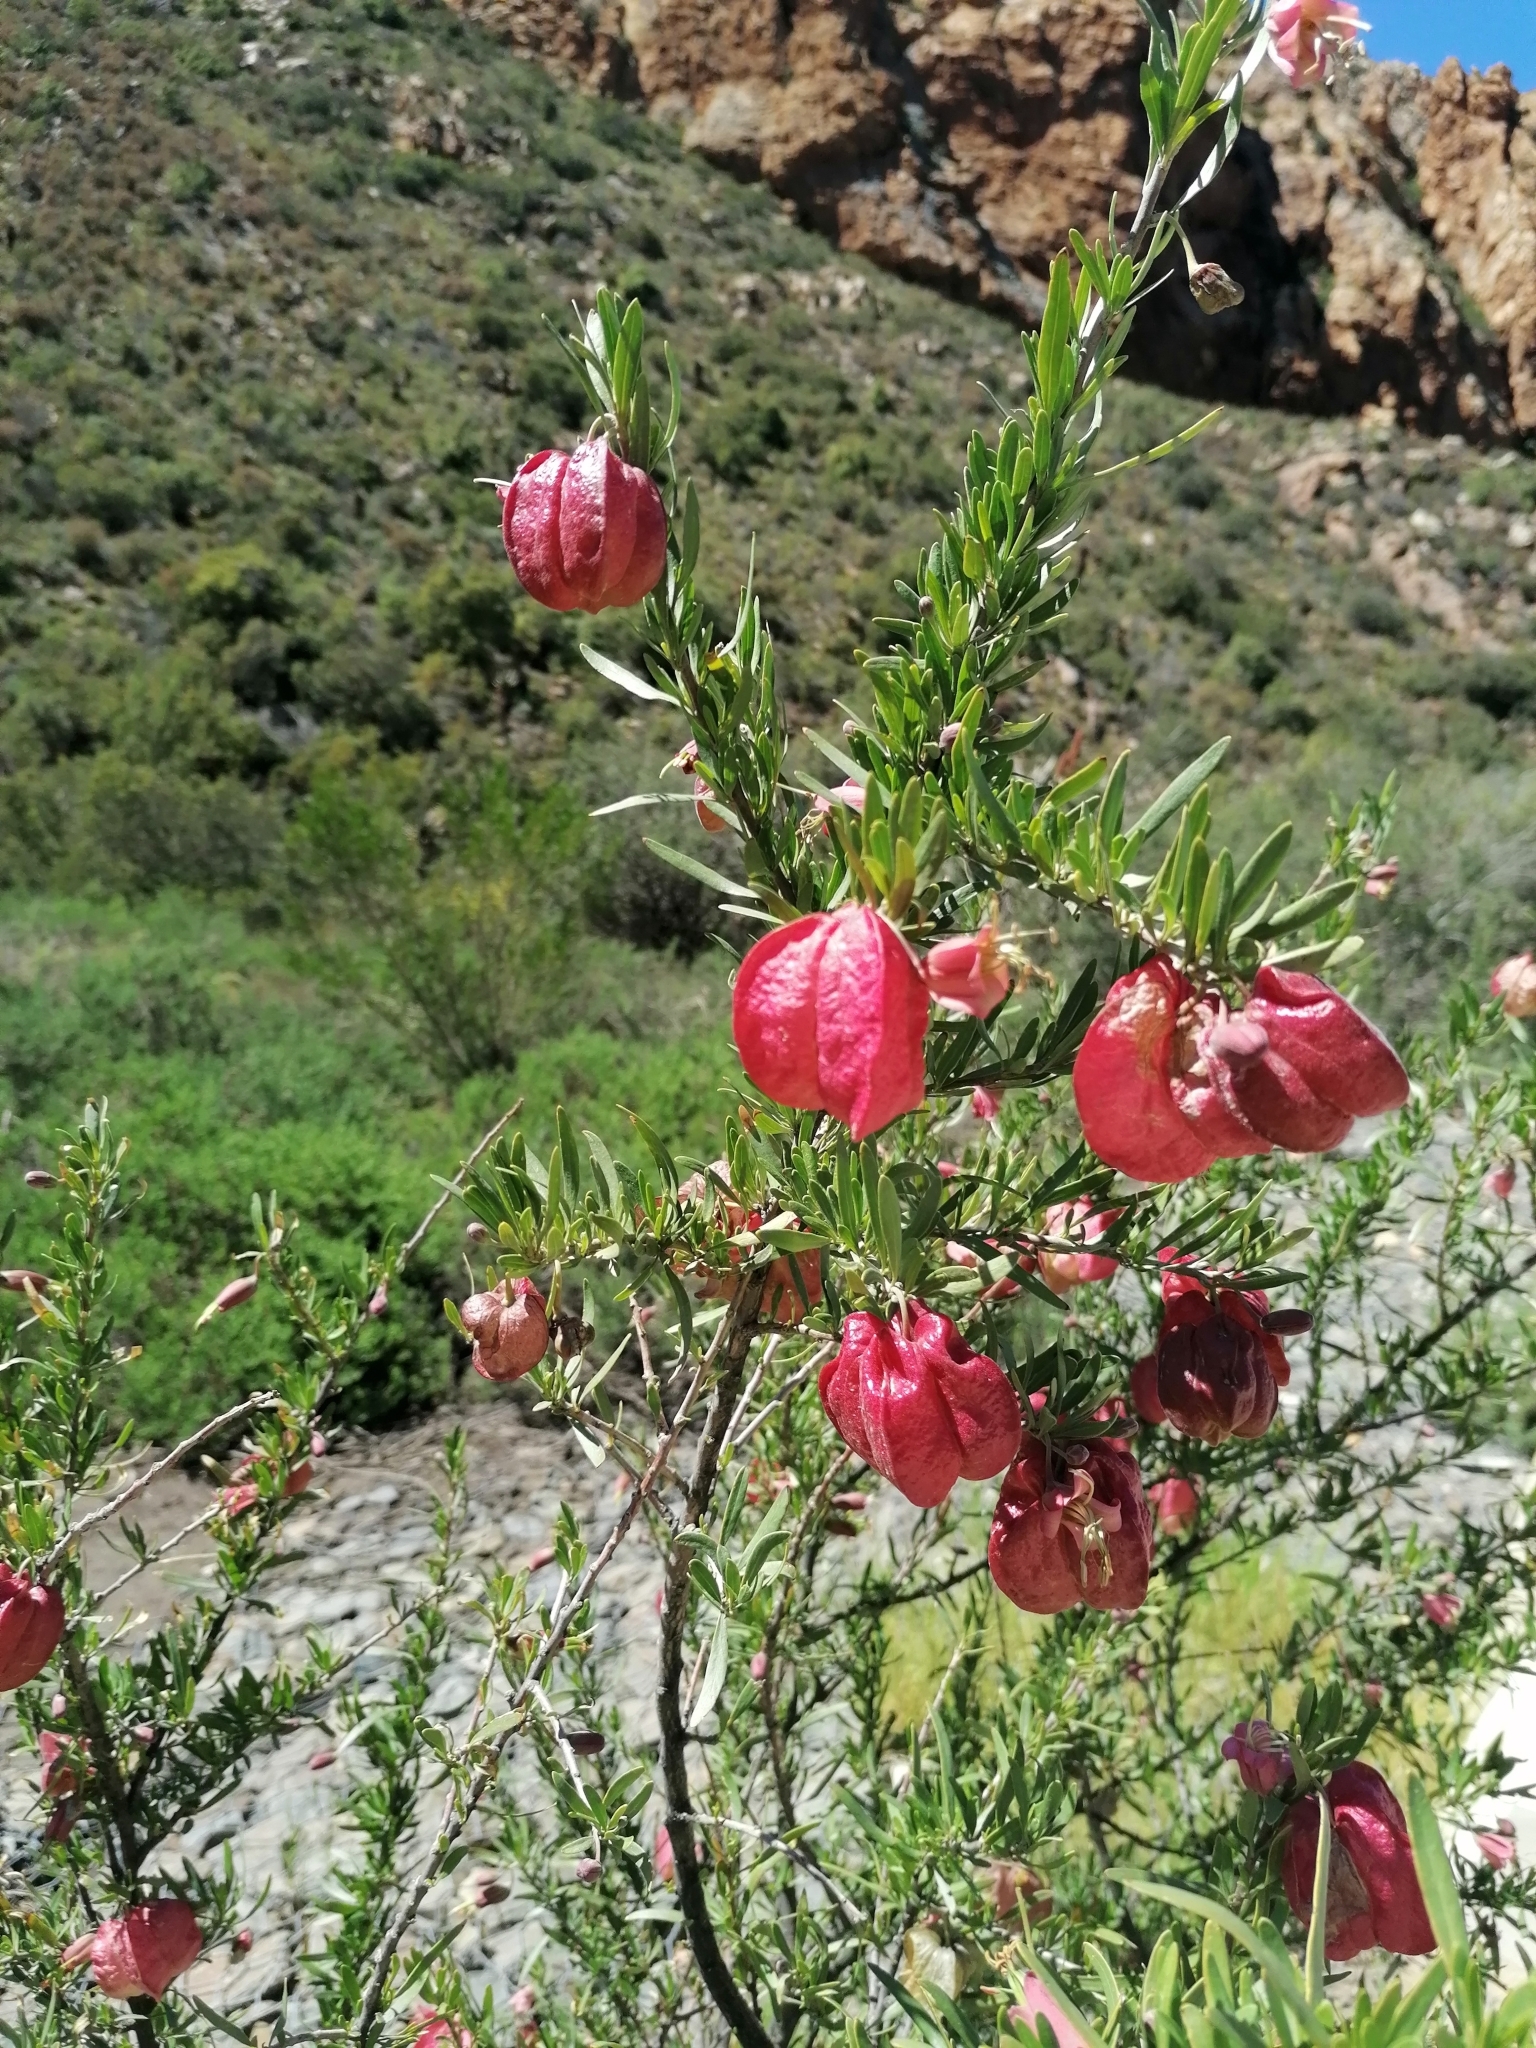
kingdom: Plantae
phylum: Tracheophyta
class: Magnoliopsida
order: Sapindales
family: Meliaceae
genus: Nymania
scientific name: Nymania capensis
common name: Chinese lantern tree
